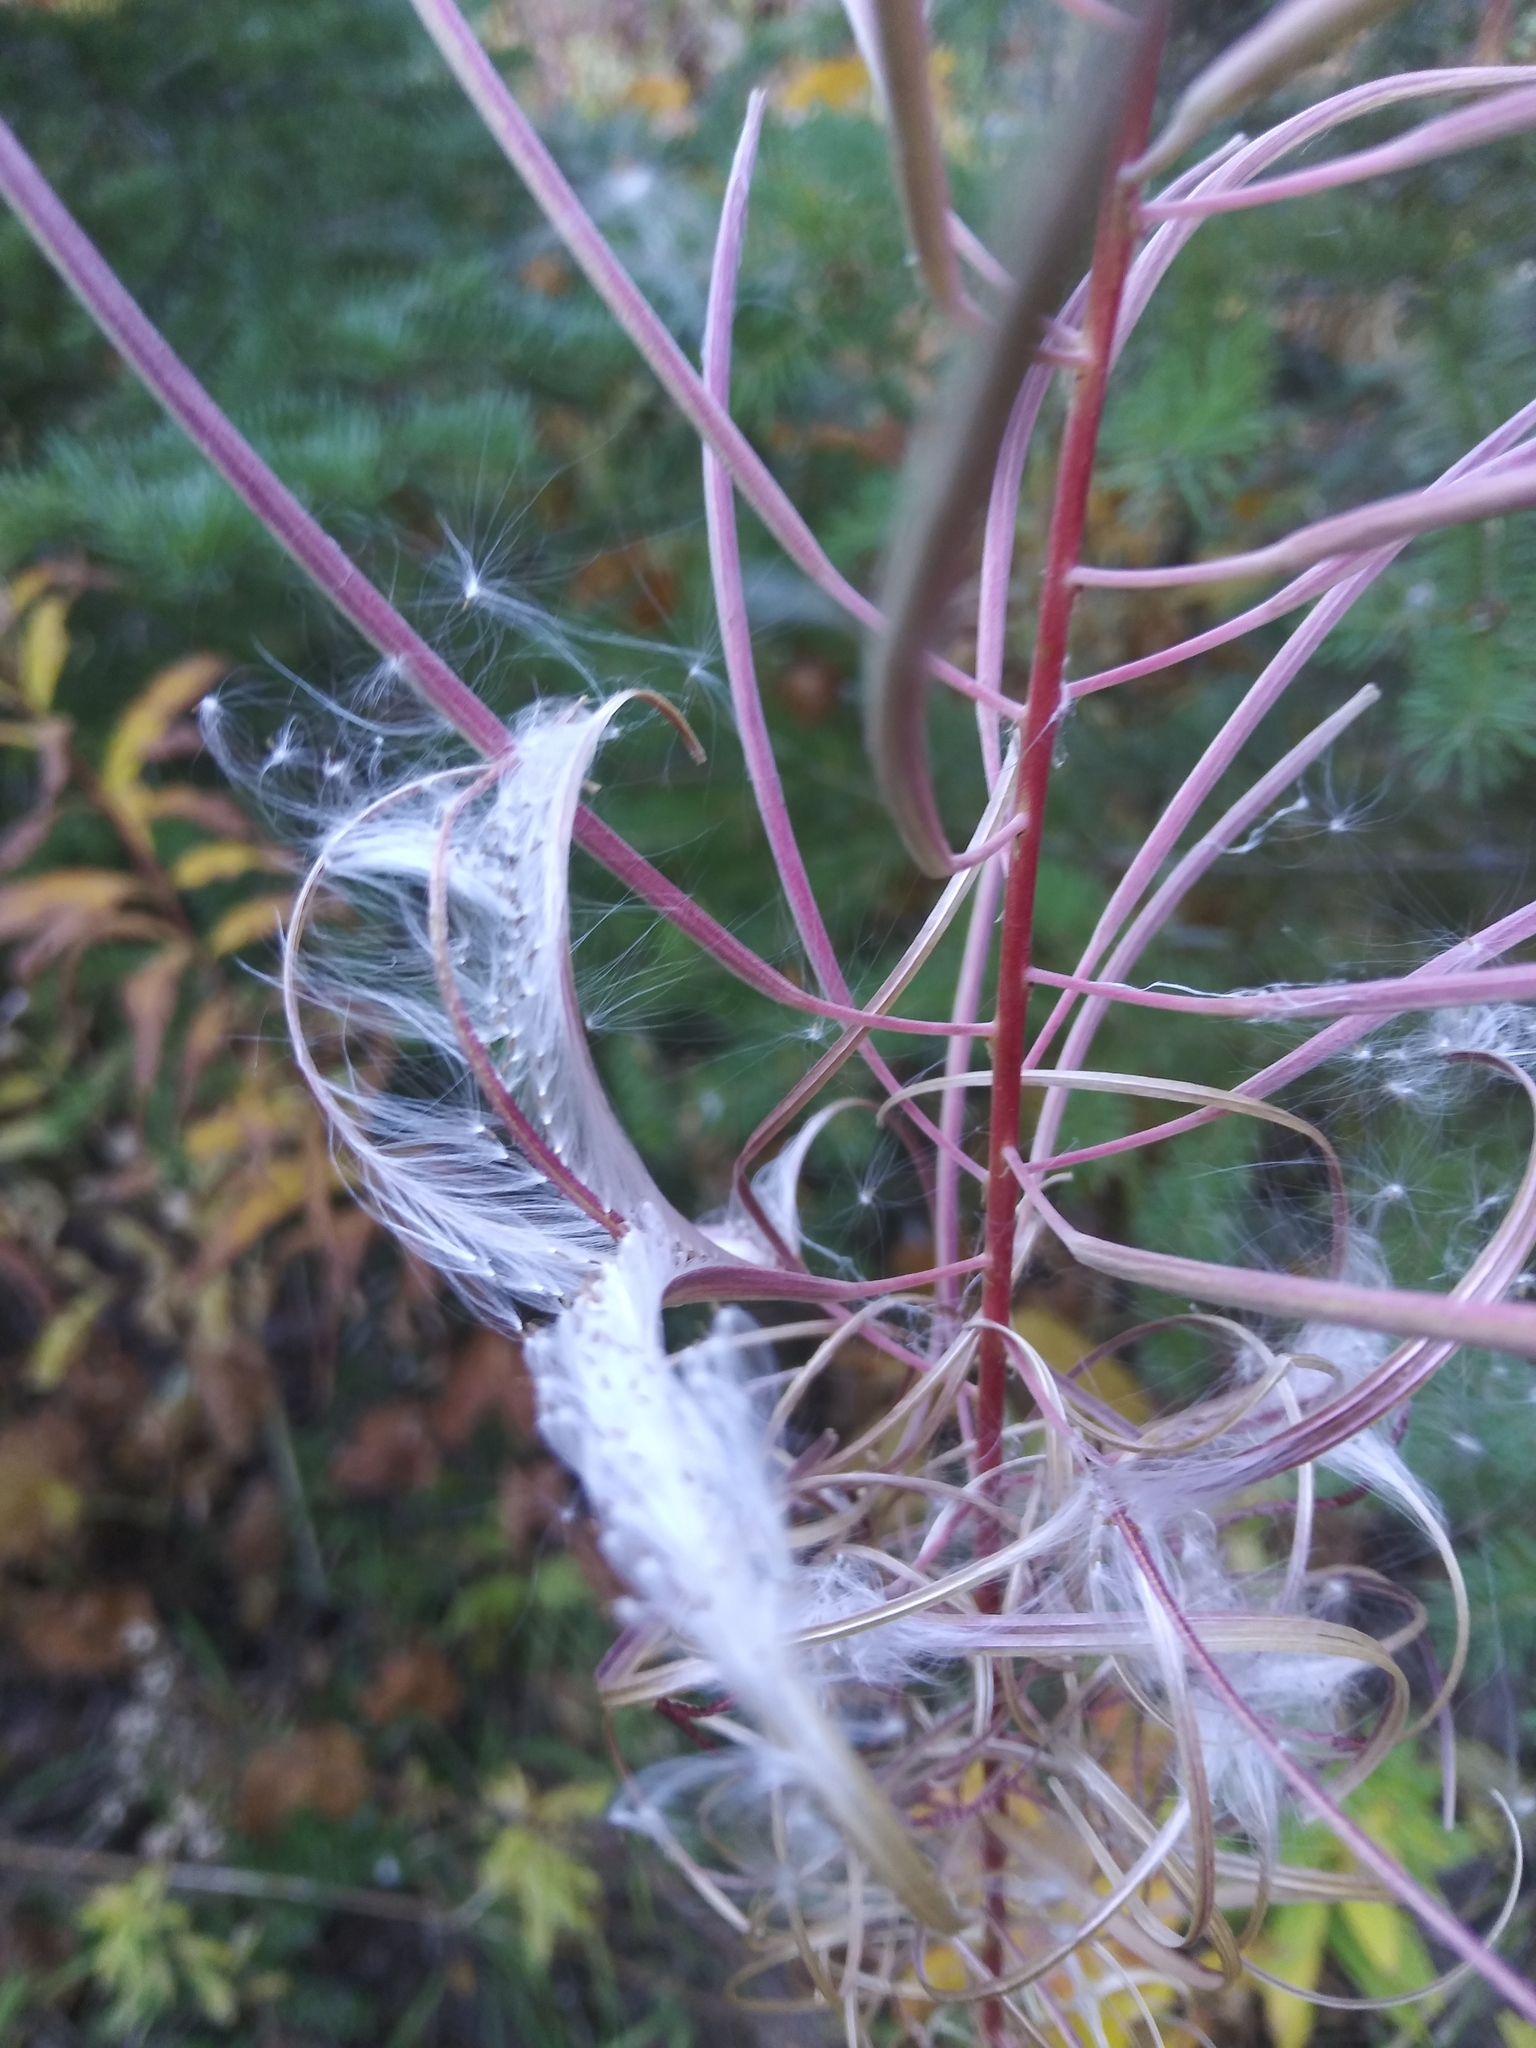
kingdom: Plantae
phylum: Tracheophyta
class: Magnoliopsida
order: Myrtales
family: Onagraceae
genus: Chamaenerion
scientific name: Chamaenerion angustifolium
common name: Fireweed
